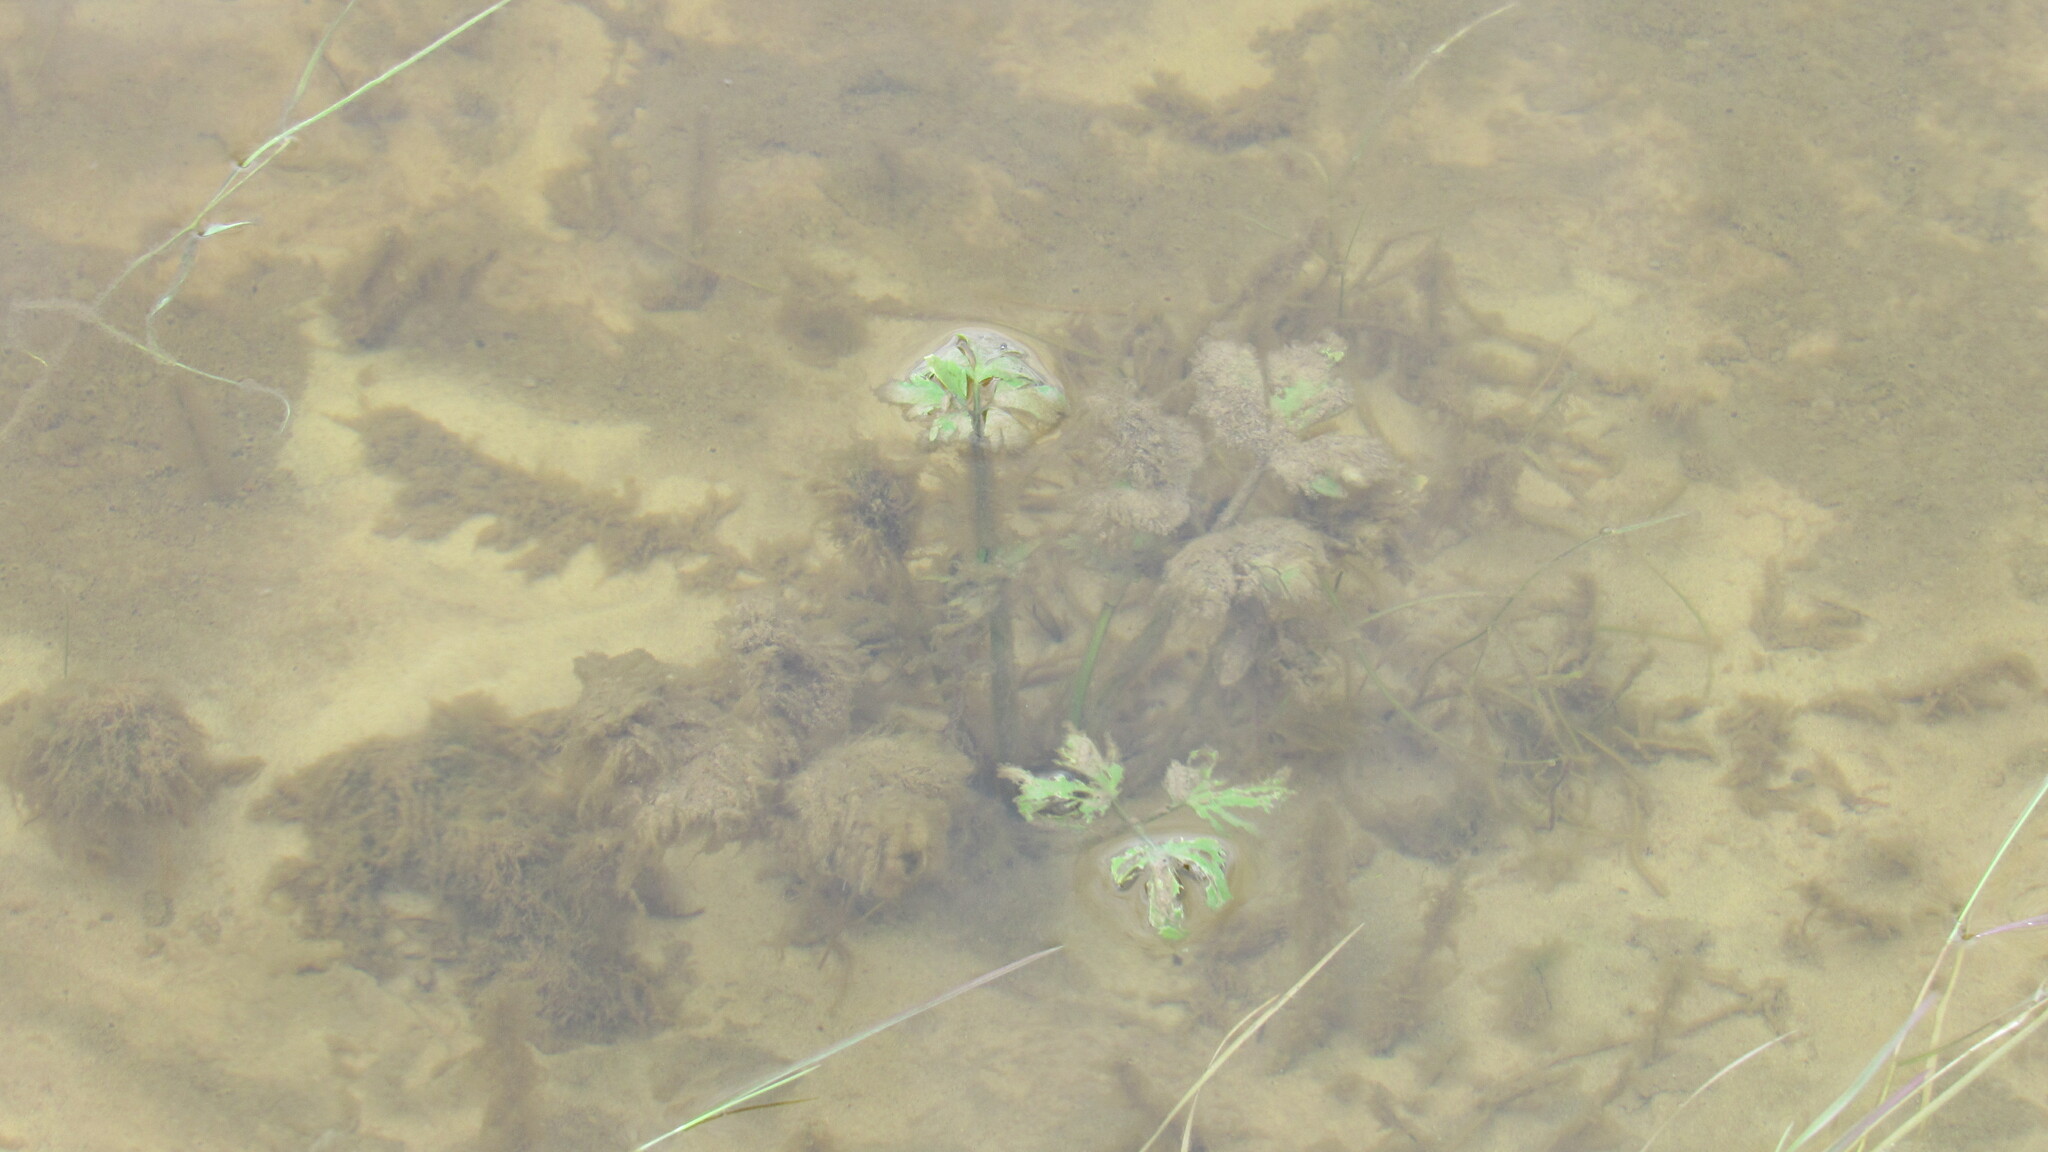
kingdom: Plantae
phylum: Tracheophyta
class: Magnoliopsida
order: Ranunculales
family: Ranunculaceae
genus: Ranunculus
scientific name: Ranunculus repens
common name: Creeping buttercup
